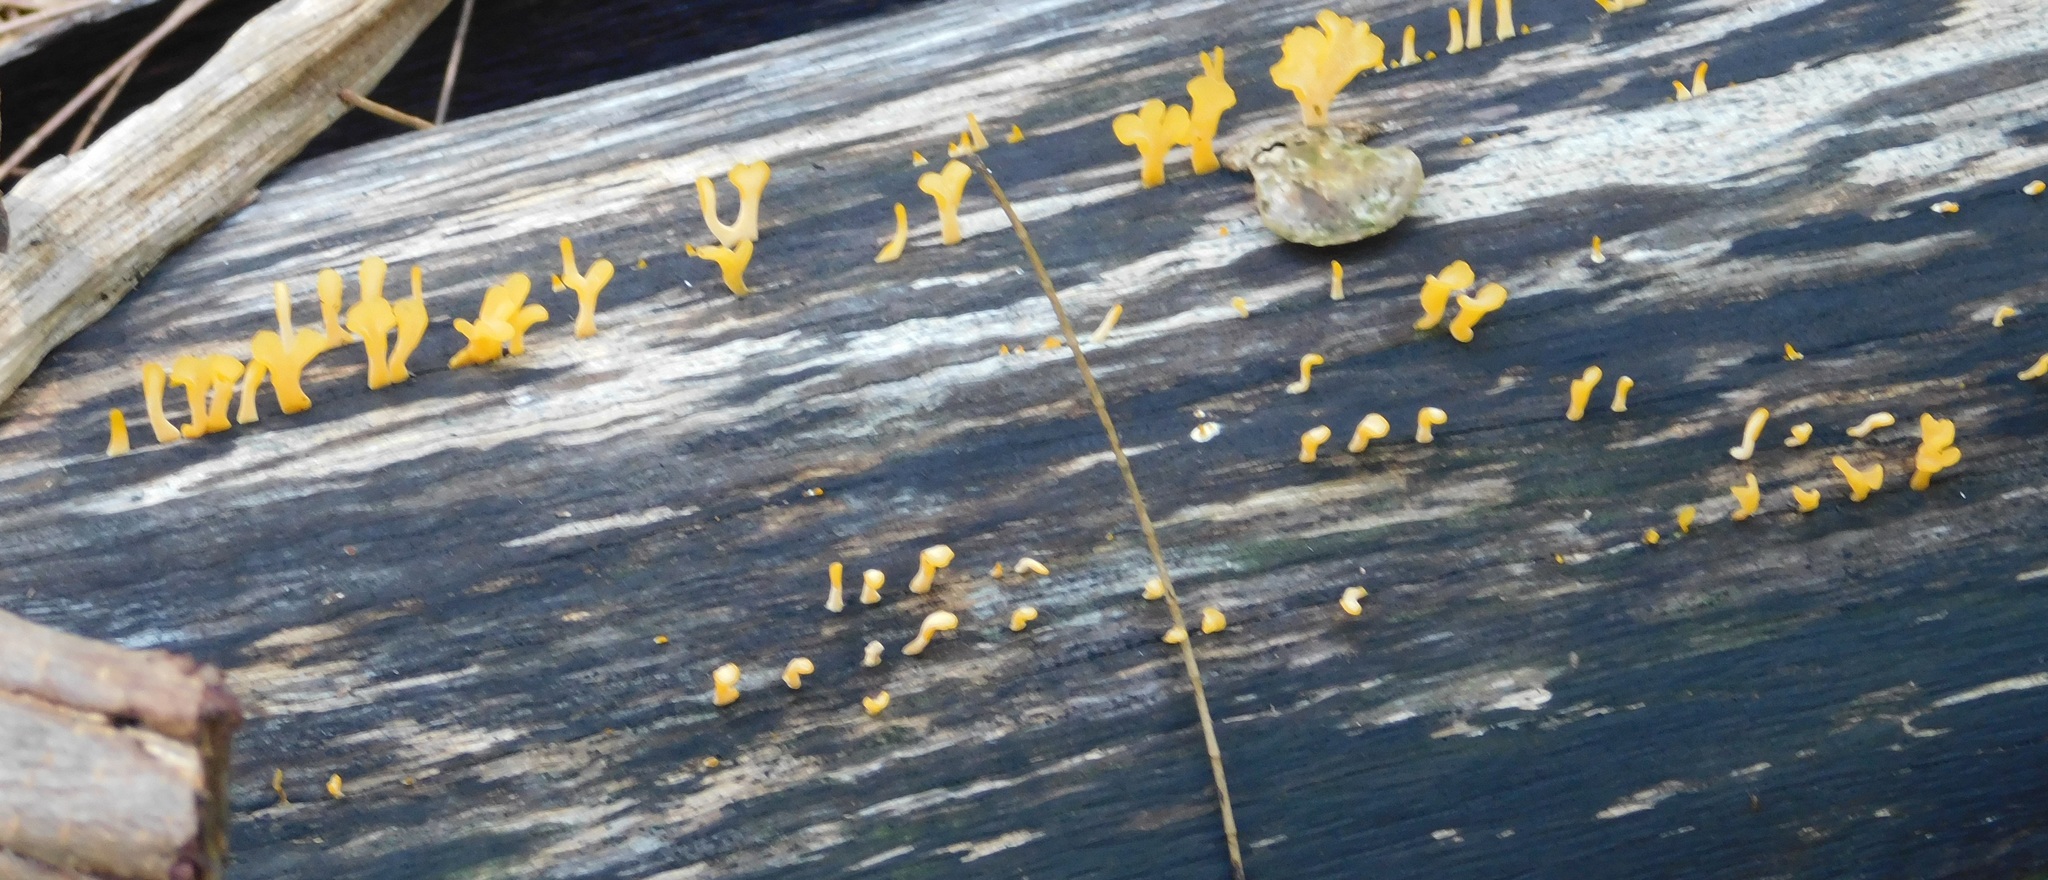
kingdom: Fungi
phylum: Basidiomycota
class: Dacrymycetes
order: Dacrymycetales
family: Dacrymycetaceae
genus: Dacrymyces
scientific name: Dacrymyces spathularius
